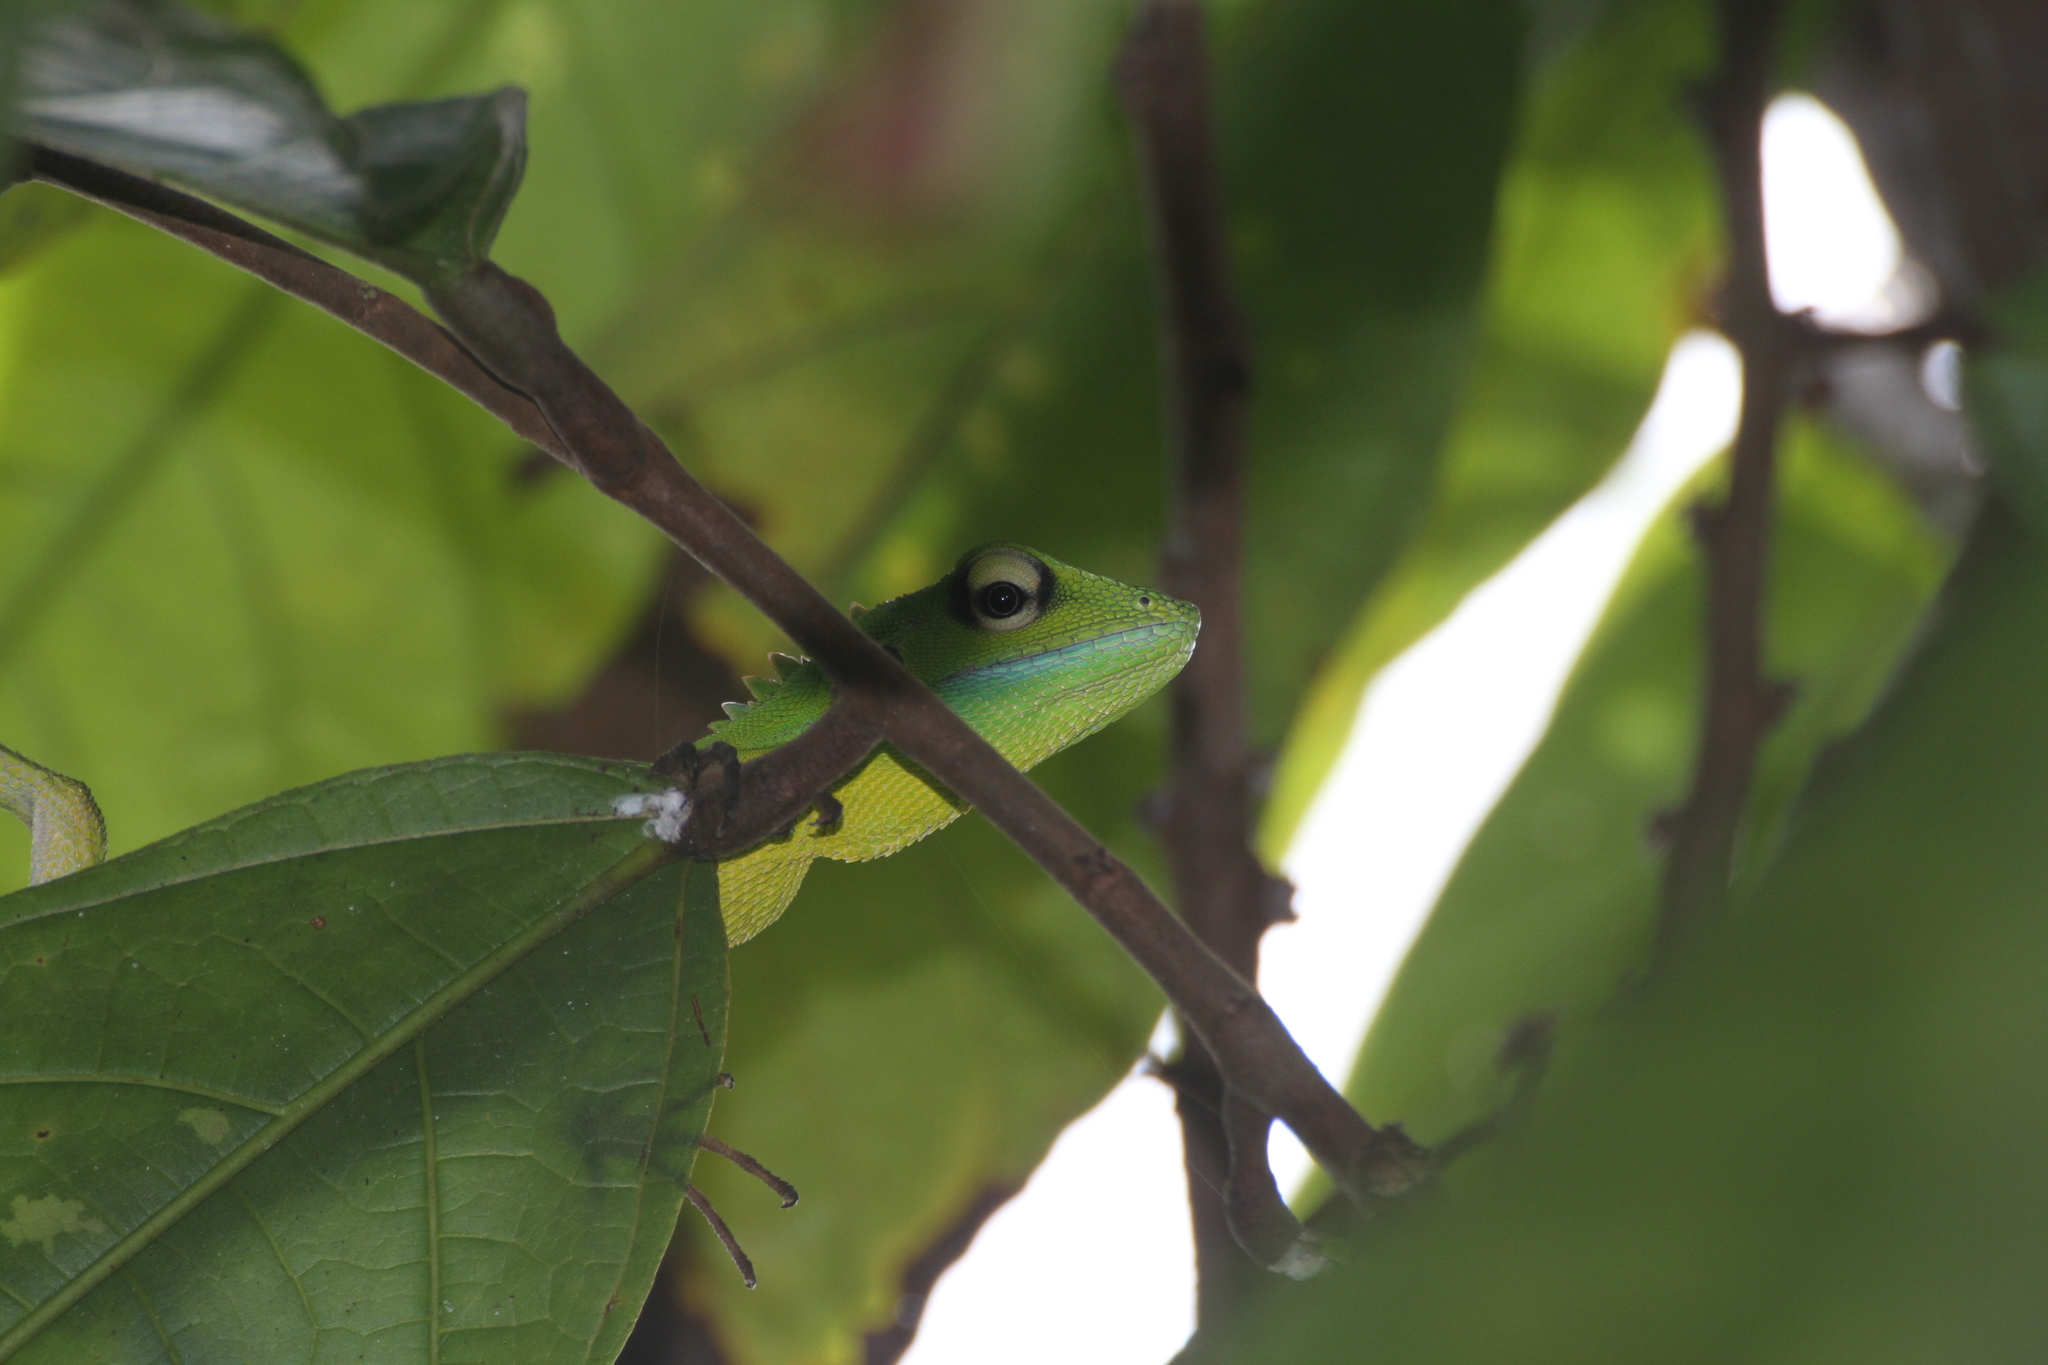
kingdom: Animalia
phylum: Chordata
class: Squamata
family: Agamidae
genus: Bronchocela
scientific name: Bronchocela cristatella
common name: Green crested lizard
